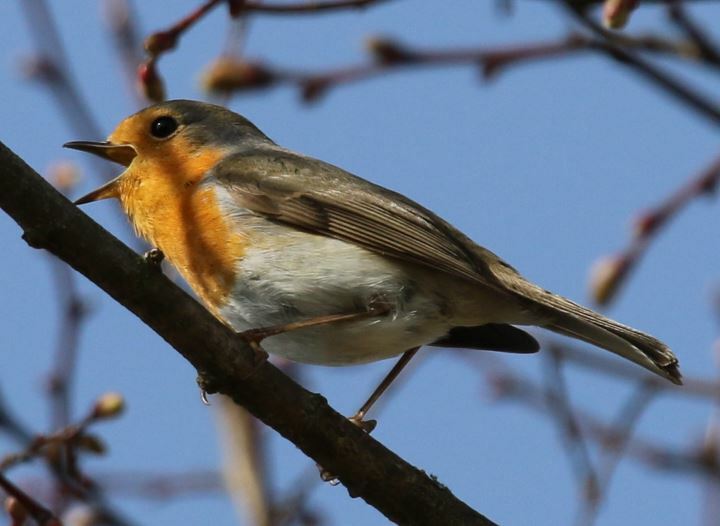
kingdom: Animalia
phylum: Chordata
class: Aves
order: Passeriformes
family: Muscicapidae
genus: Erithacus
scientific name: Erithacus rubecula
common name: European robin
